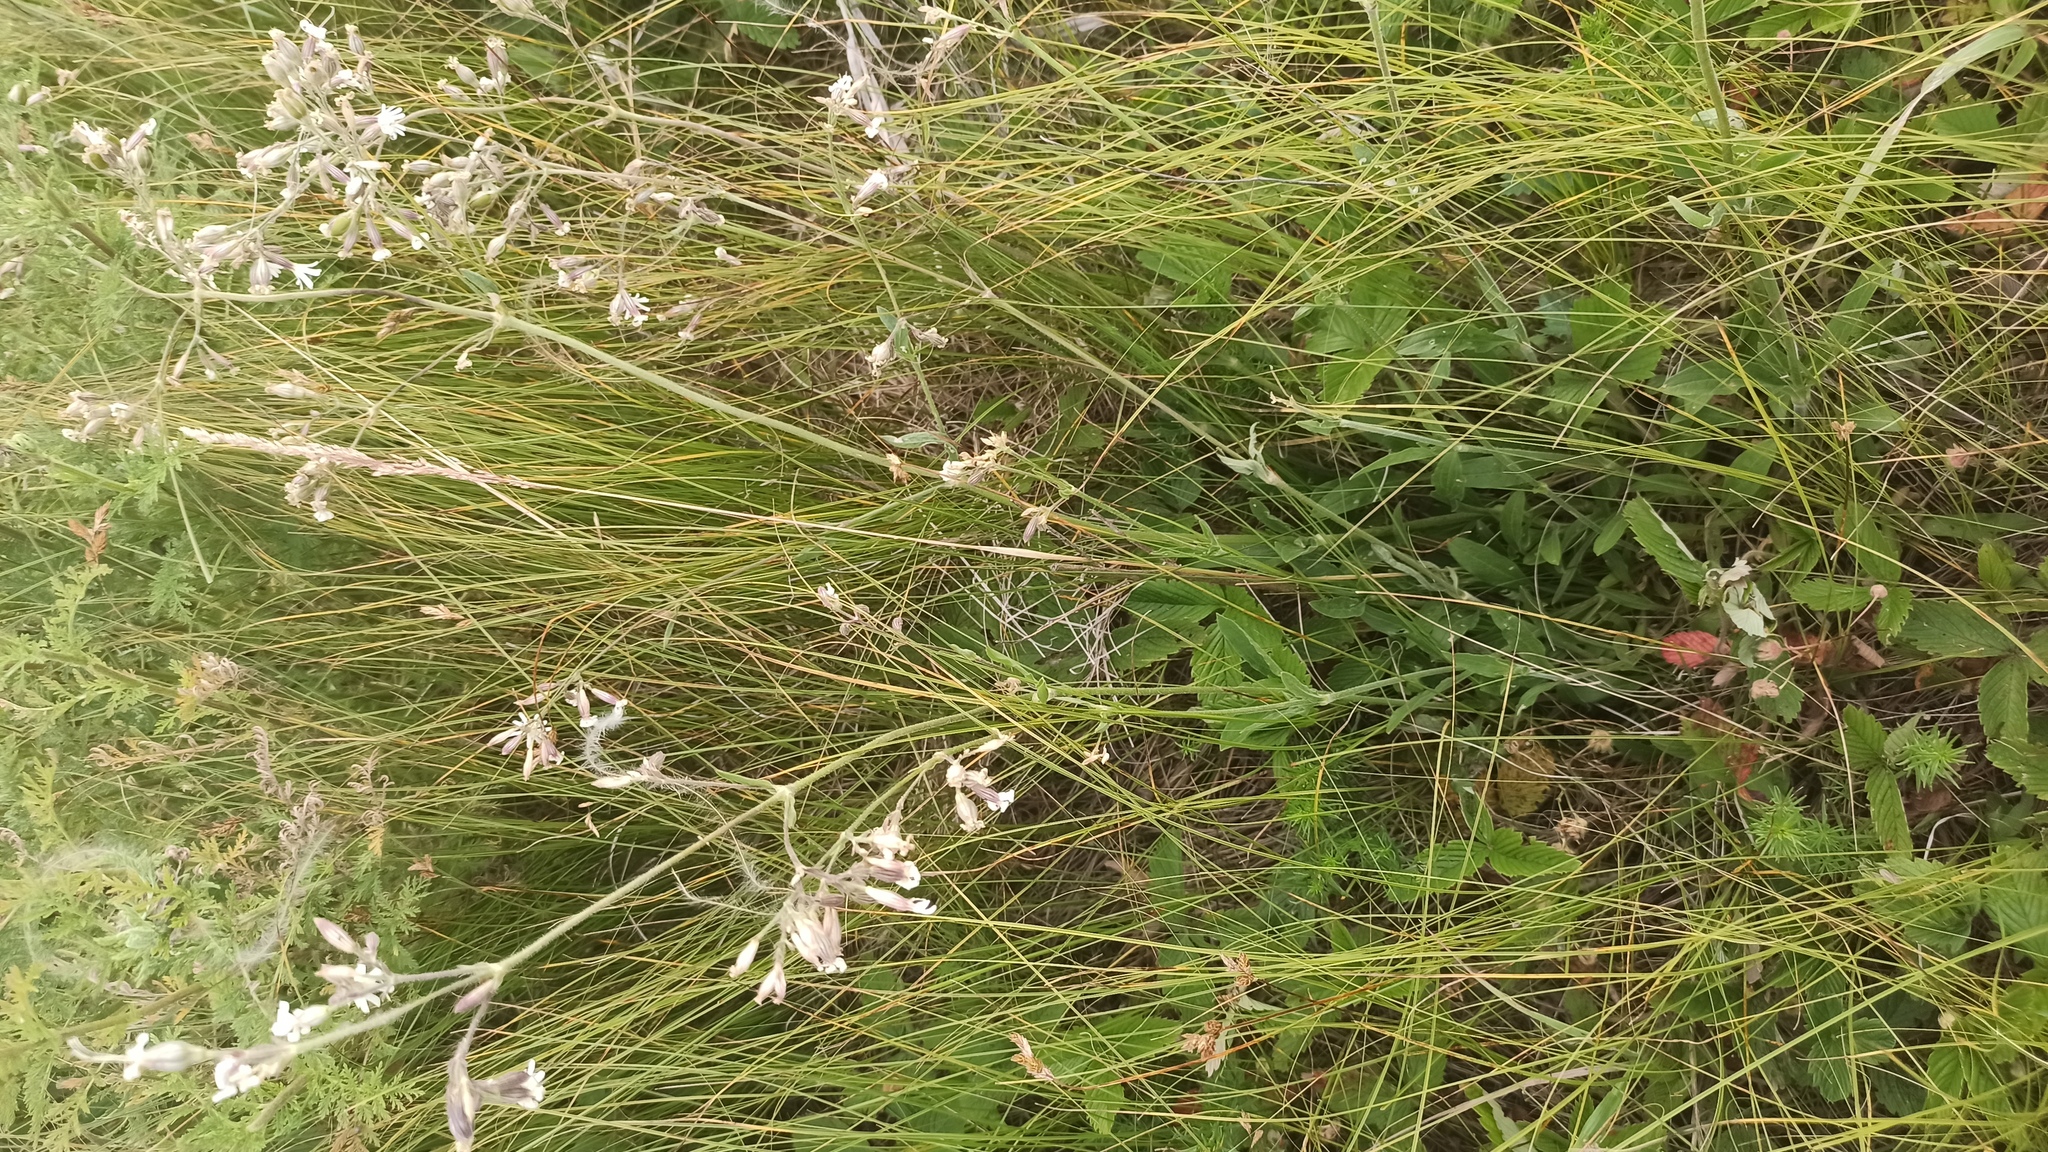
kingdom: Plantae
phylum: Tracheophyta
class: Magnoliopsida
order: Caryophyllales
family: Caryophyllaceae
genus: Silene
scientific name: Silene nutans
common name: Nottingham catchfly
